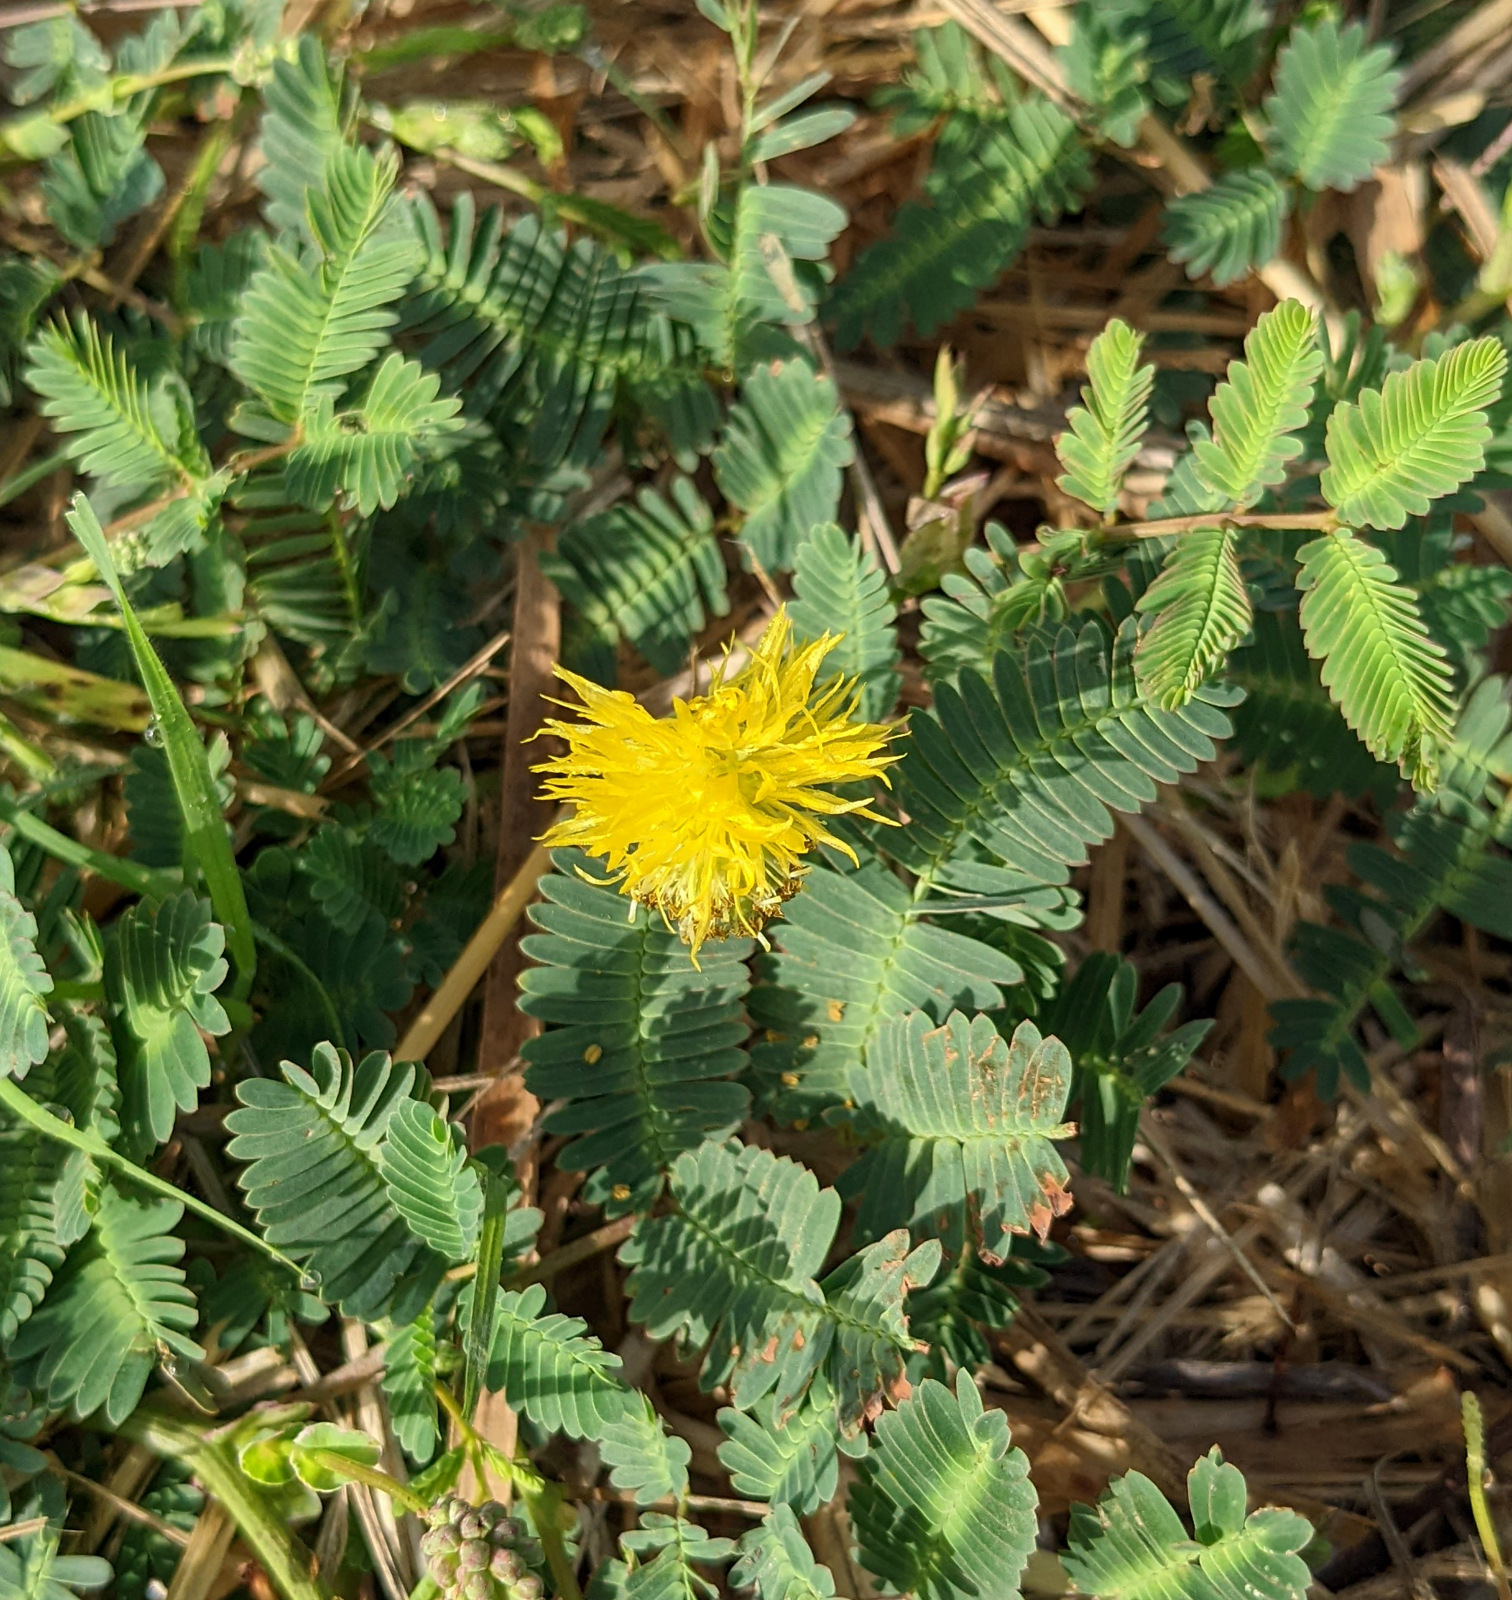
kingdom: Plantae
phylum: Tracheophyta
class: Magnoliopsida
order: Fabales
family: Fabaceae
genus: Neptunia
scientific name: Neptunia plena
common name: Dead and awake
